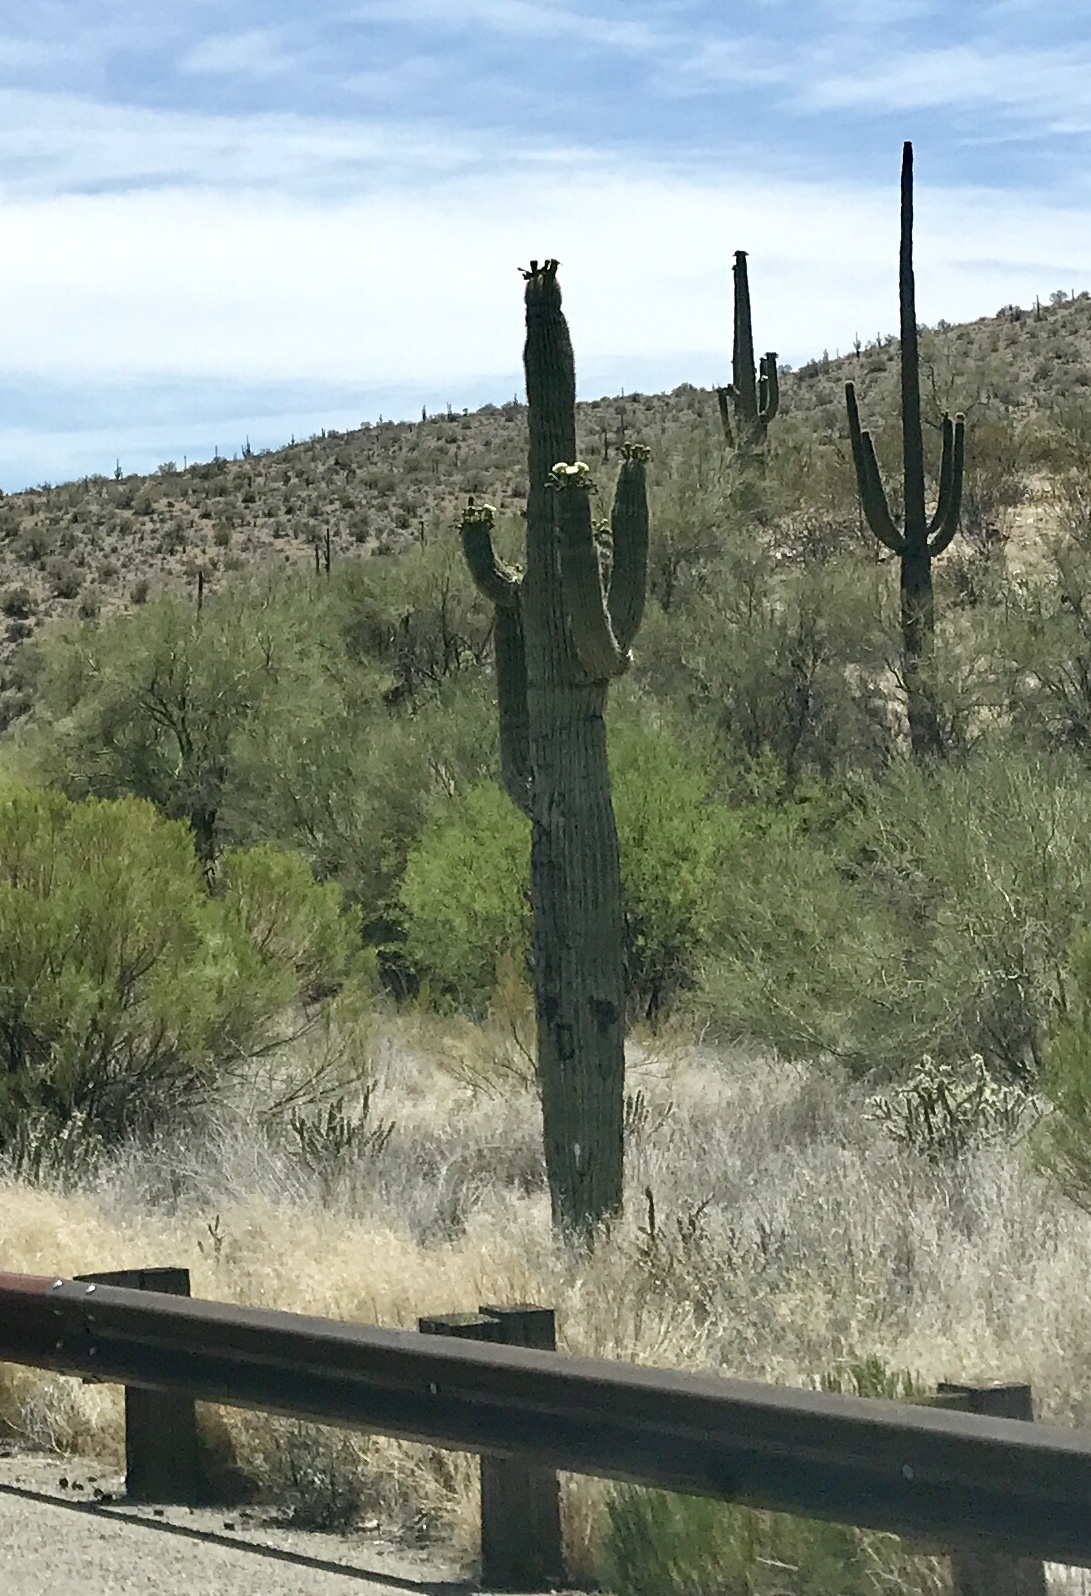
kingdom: Plantae
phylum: Tracheophyta
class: Magnoliopsida
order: Caryophyllales
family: Cactaceae
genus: Carnegiea
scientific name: Carnegiea gigantea
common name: Saguaro
